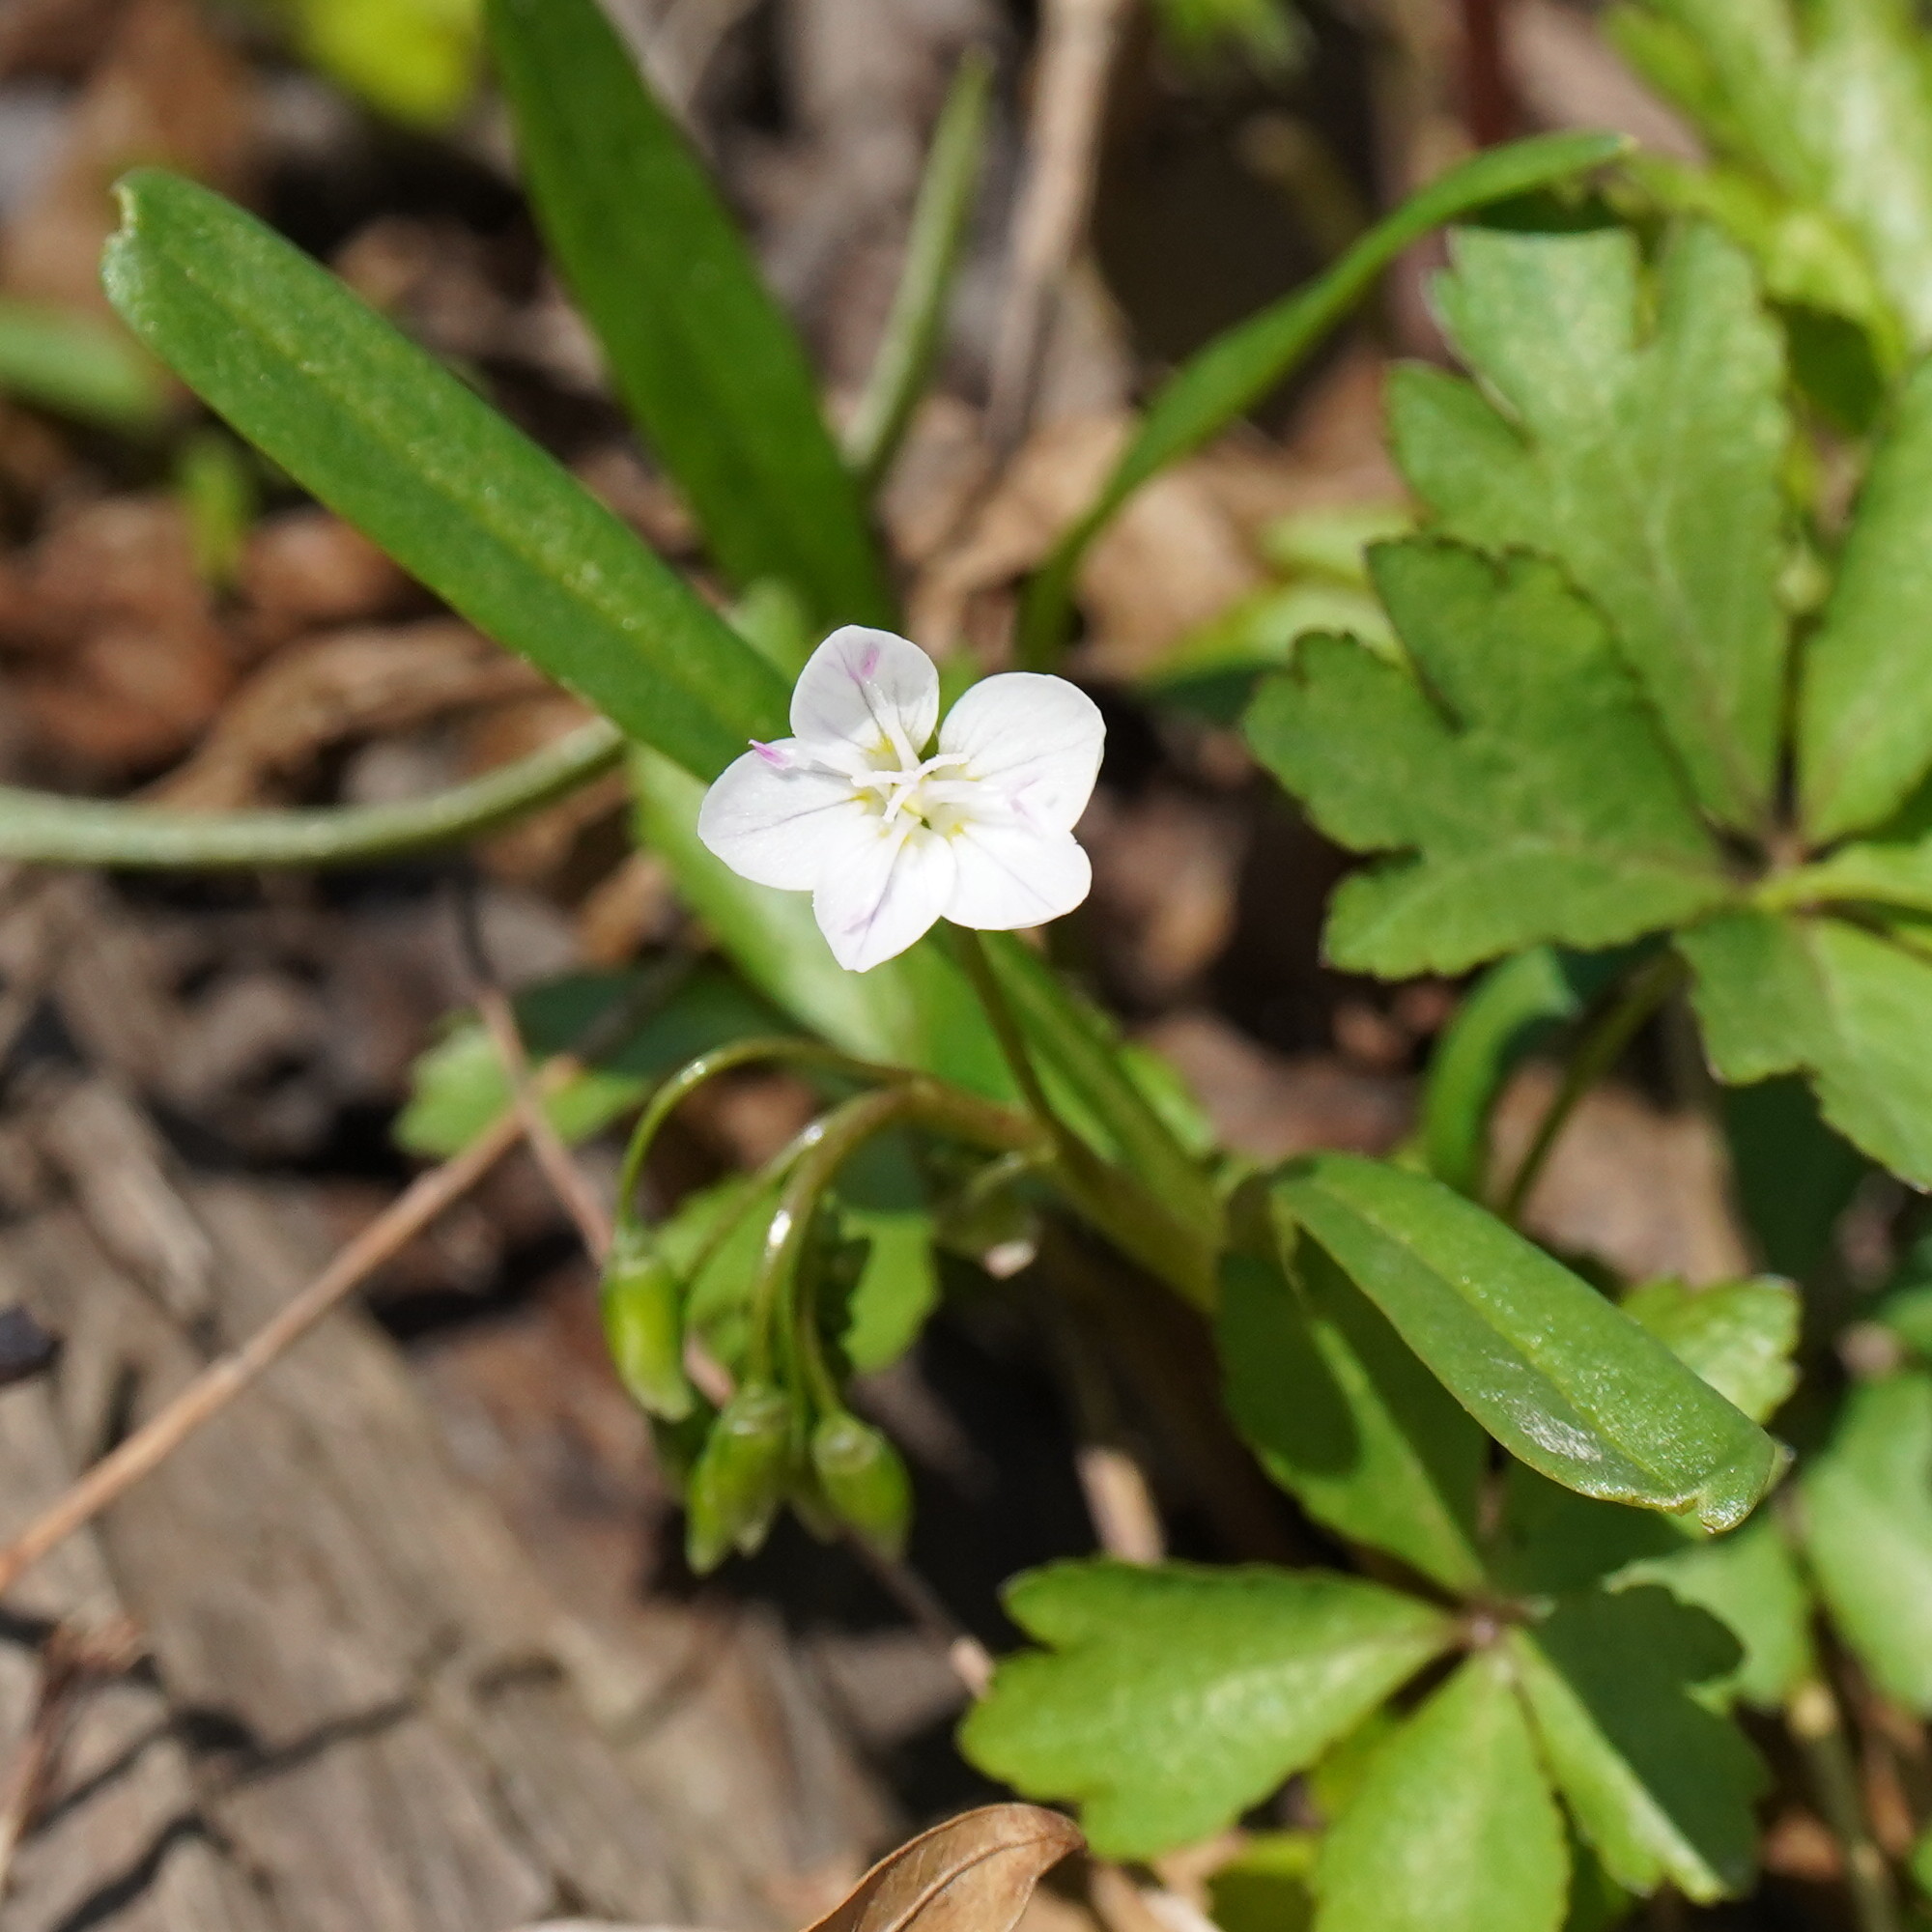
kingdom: Plantae
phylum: Tracheophyta
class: Magnoliopsida
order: Caryophyllales
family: Montiaceae
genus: Claytonia
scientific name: Claytonia virginica
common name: Virginia springbeauty
